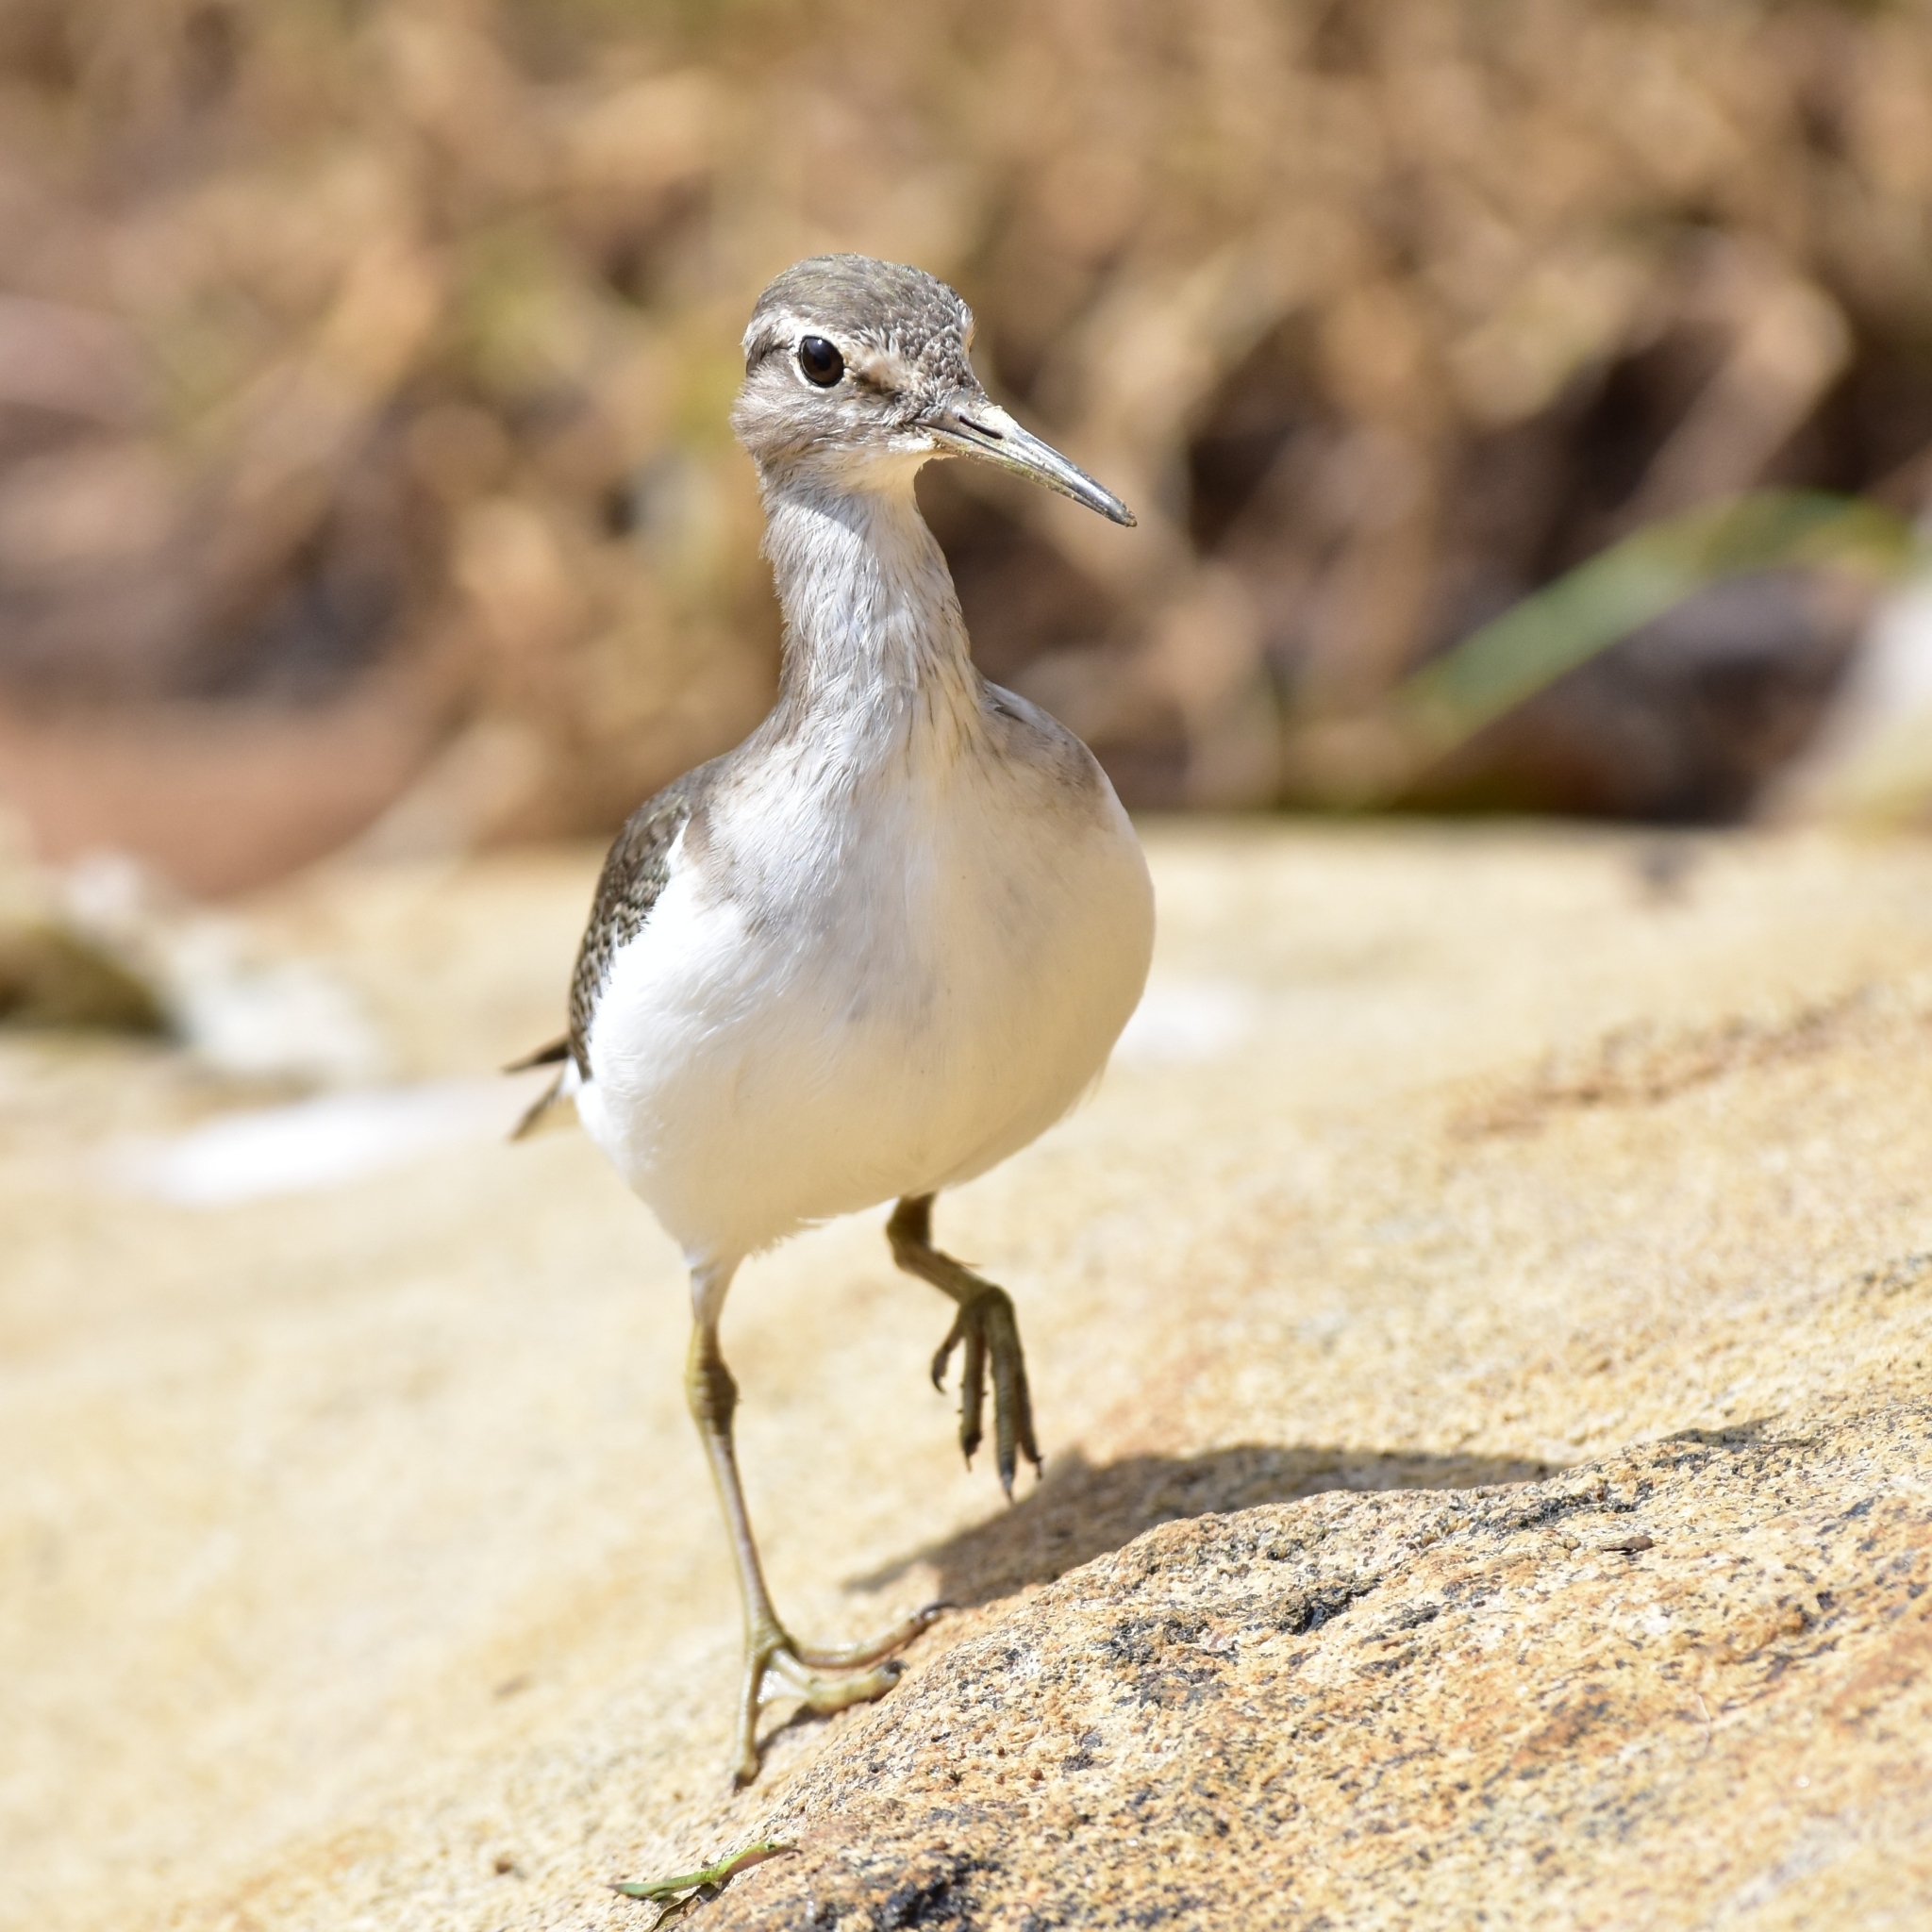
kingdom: Animalia
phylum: Chordata
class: Aves
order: Charadriiformes
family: Scolopacidae
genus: Actitis
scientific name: Actitis hypoleucos
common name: Common sandpiper
